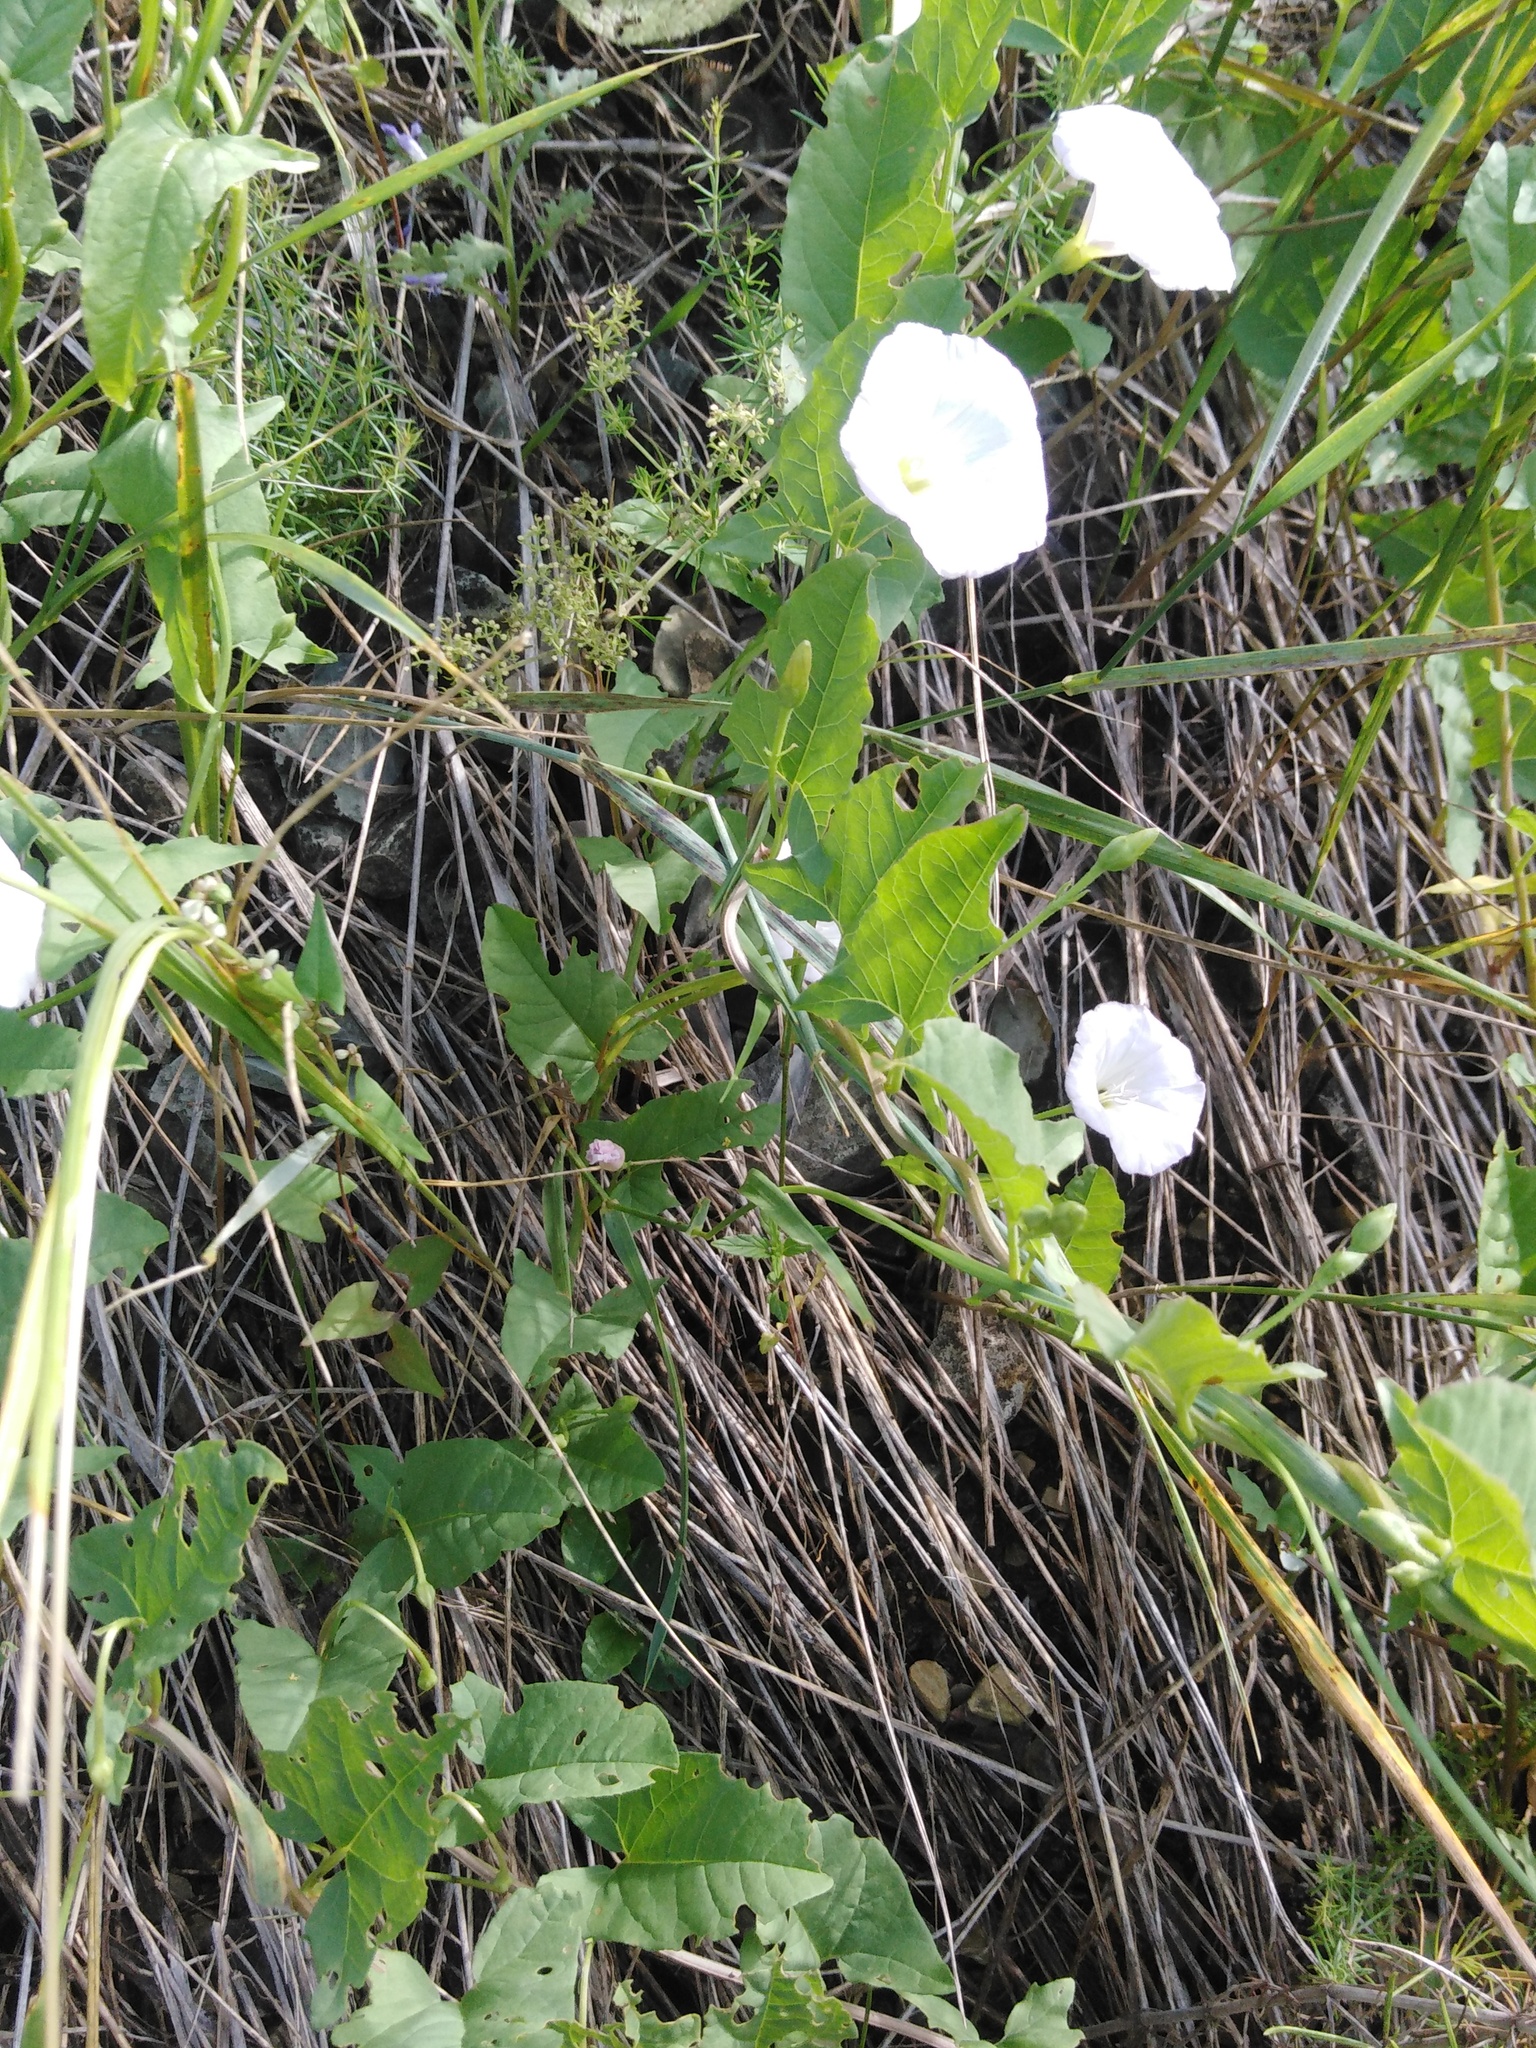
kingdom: Plantae
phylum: Tracheophyta
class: Magnoliopsida
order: Solanales
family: Convolvulaceae
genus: Convolvulus
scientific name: Convolvulus arvensis
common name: Field bindweed
